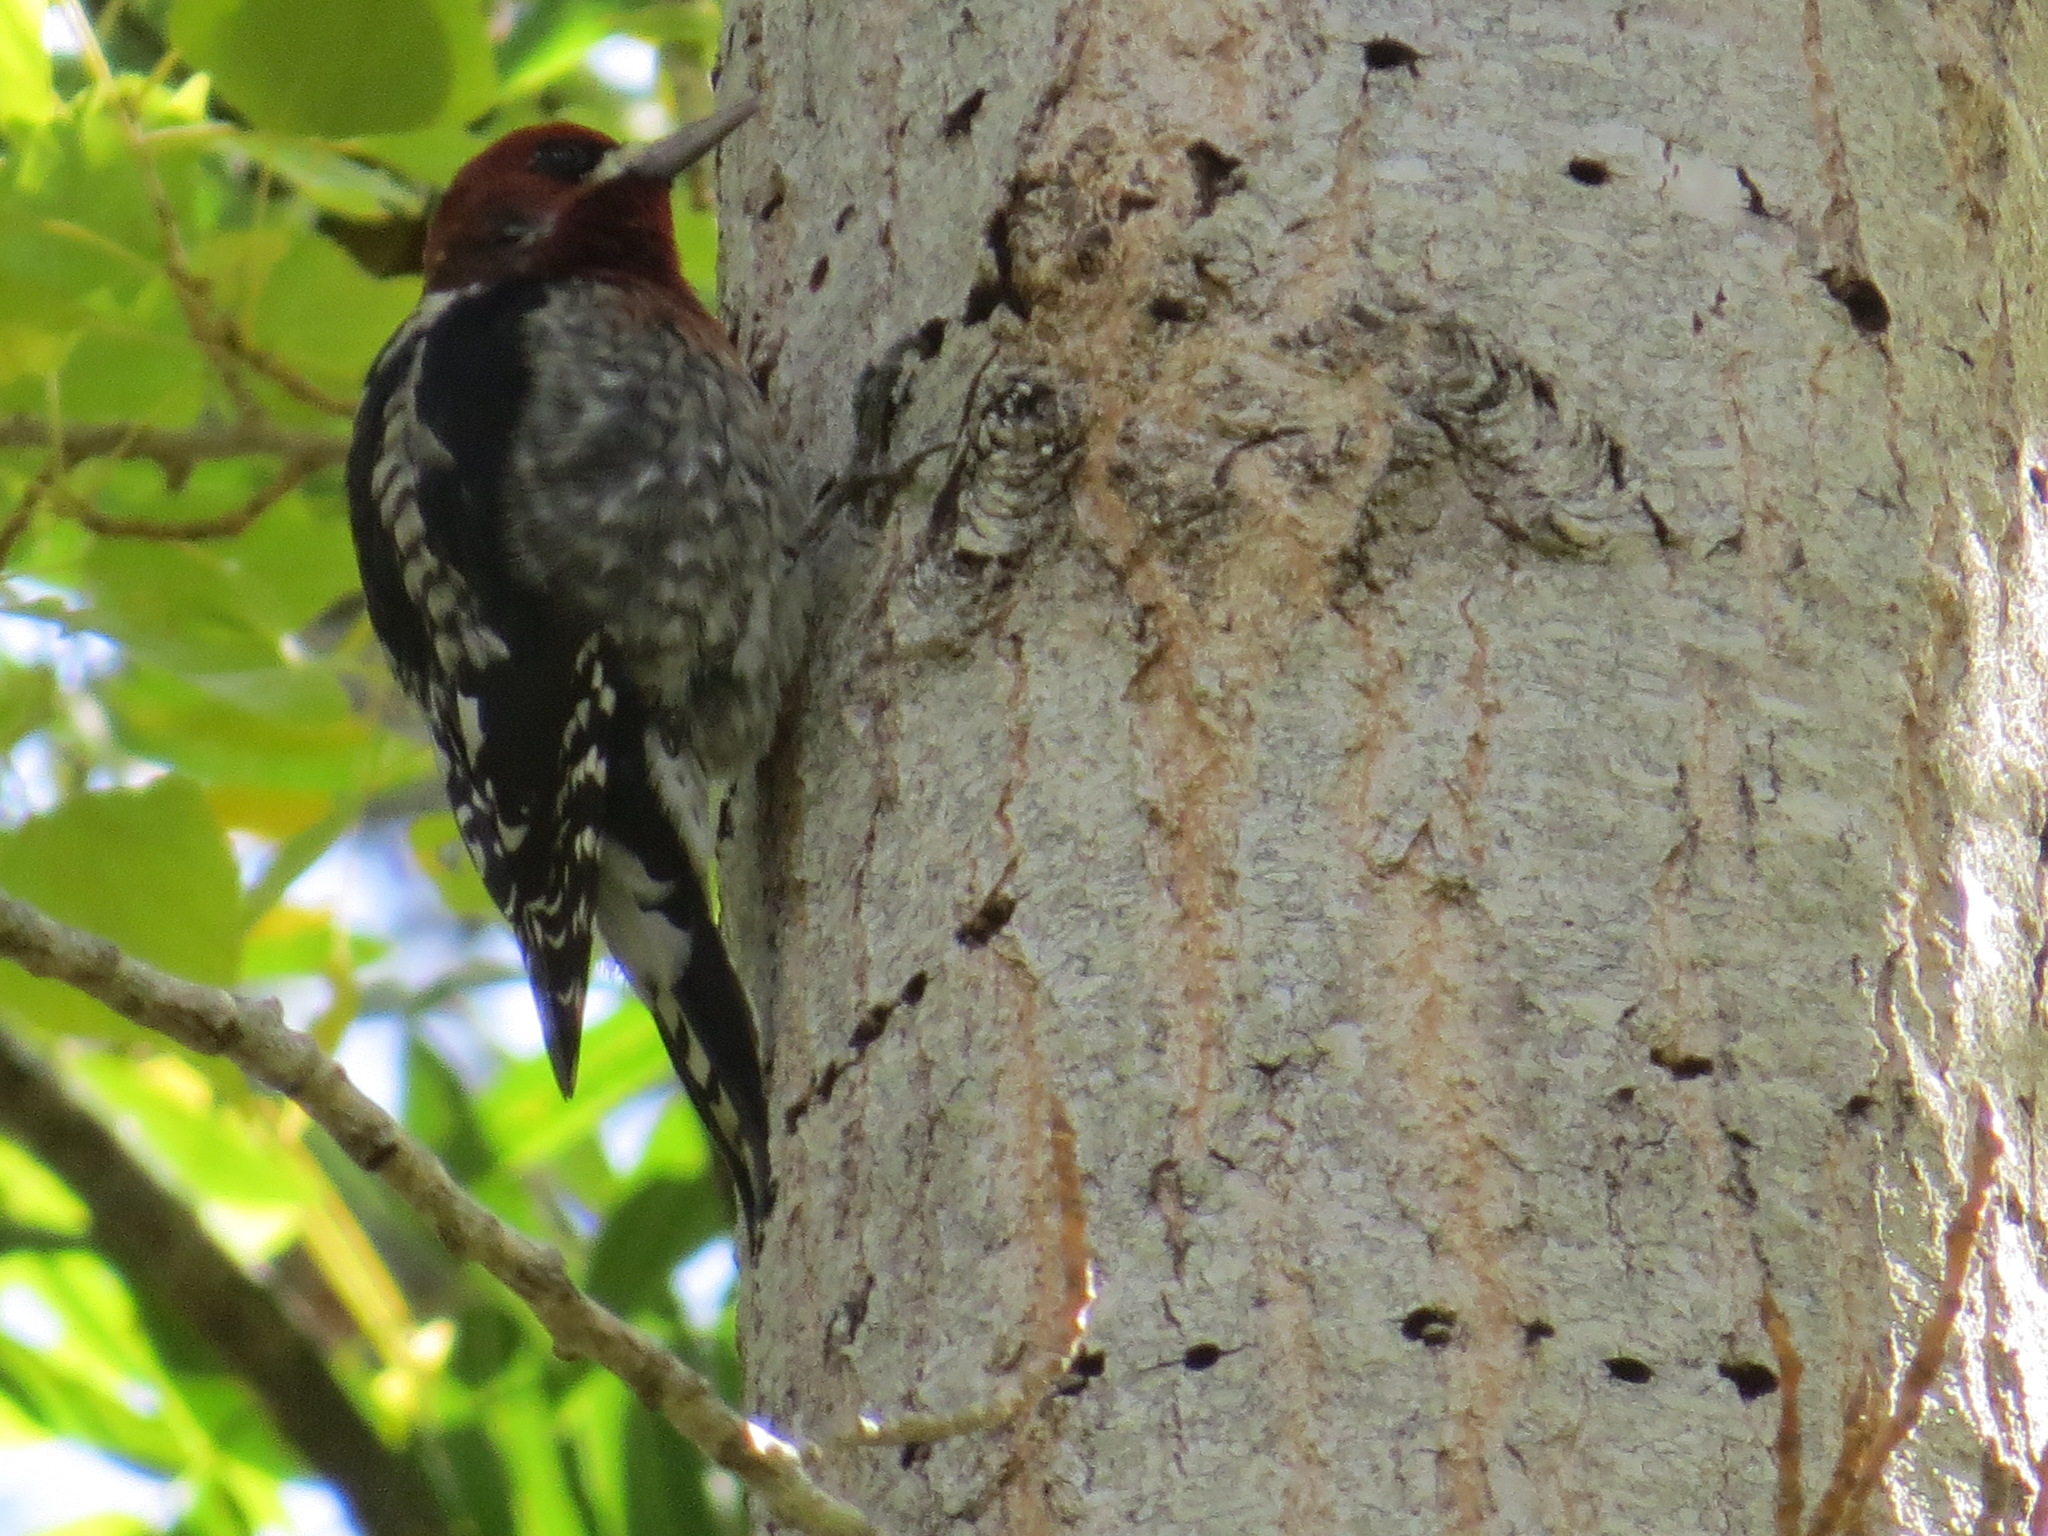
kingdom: Animalia
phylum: Chordata
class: Aves
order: Piciformes
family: Picidae
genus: Sphyrapicus
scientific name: Sphyrapicus ruber
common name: Red-breasted sapsucker
